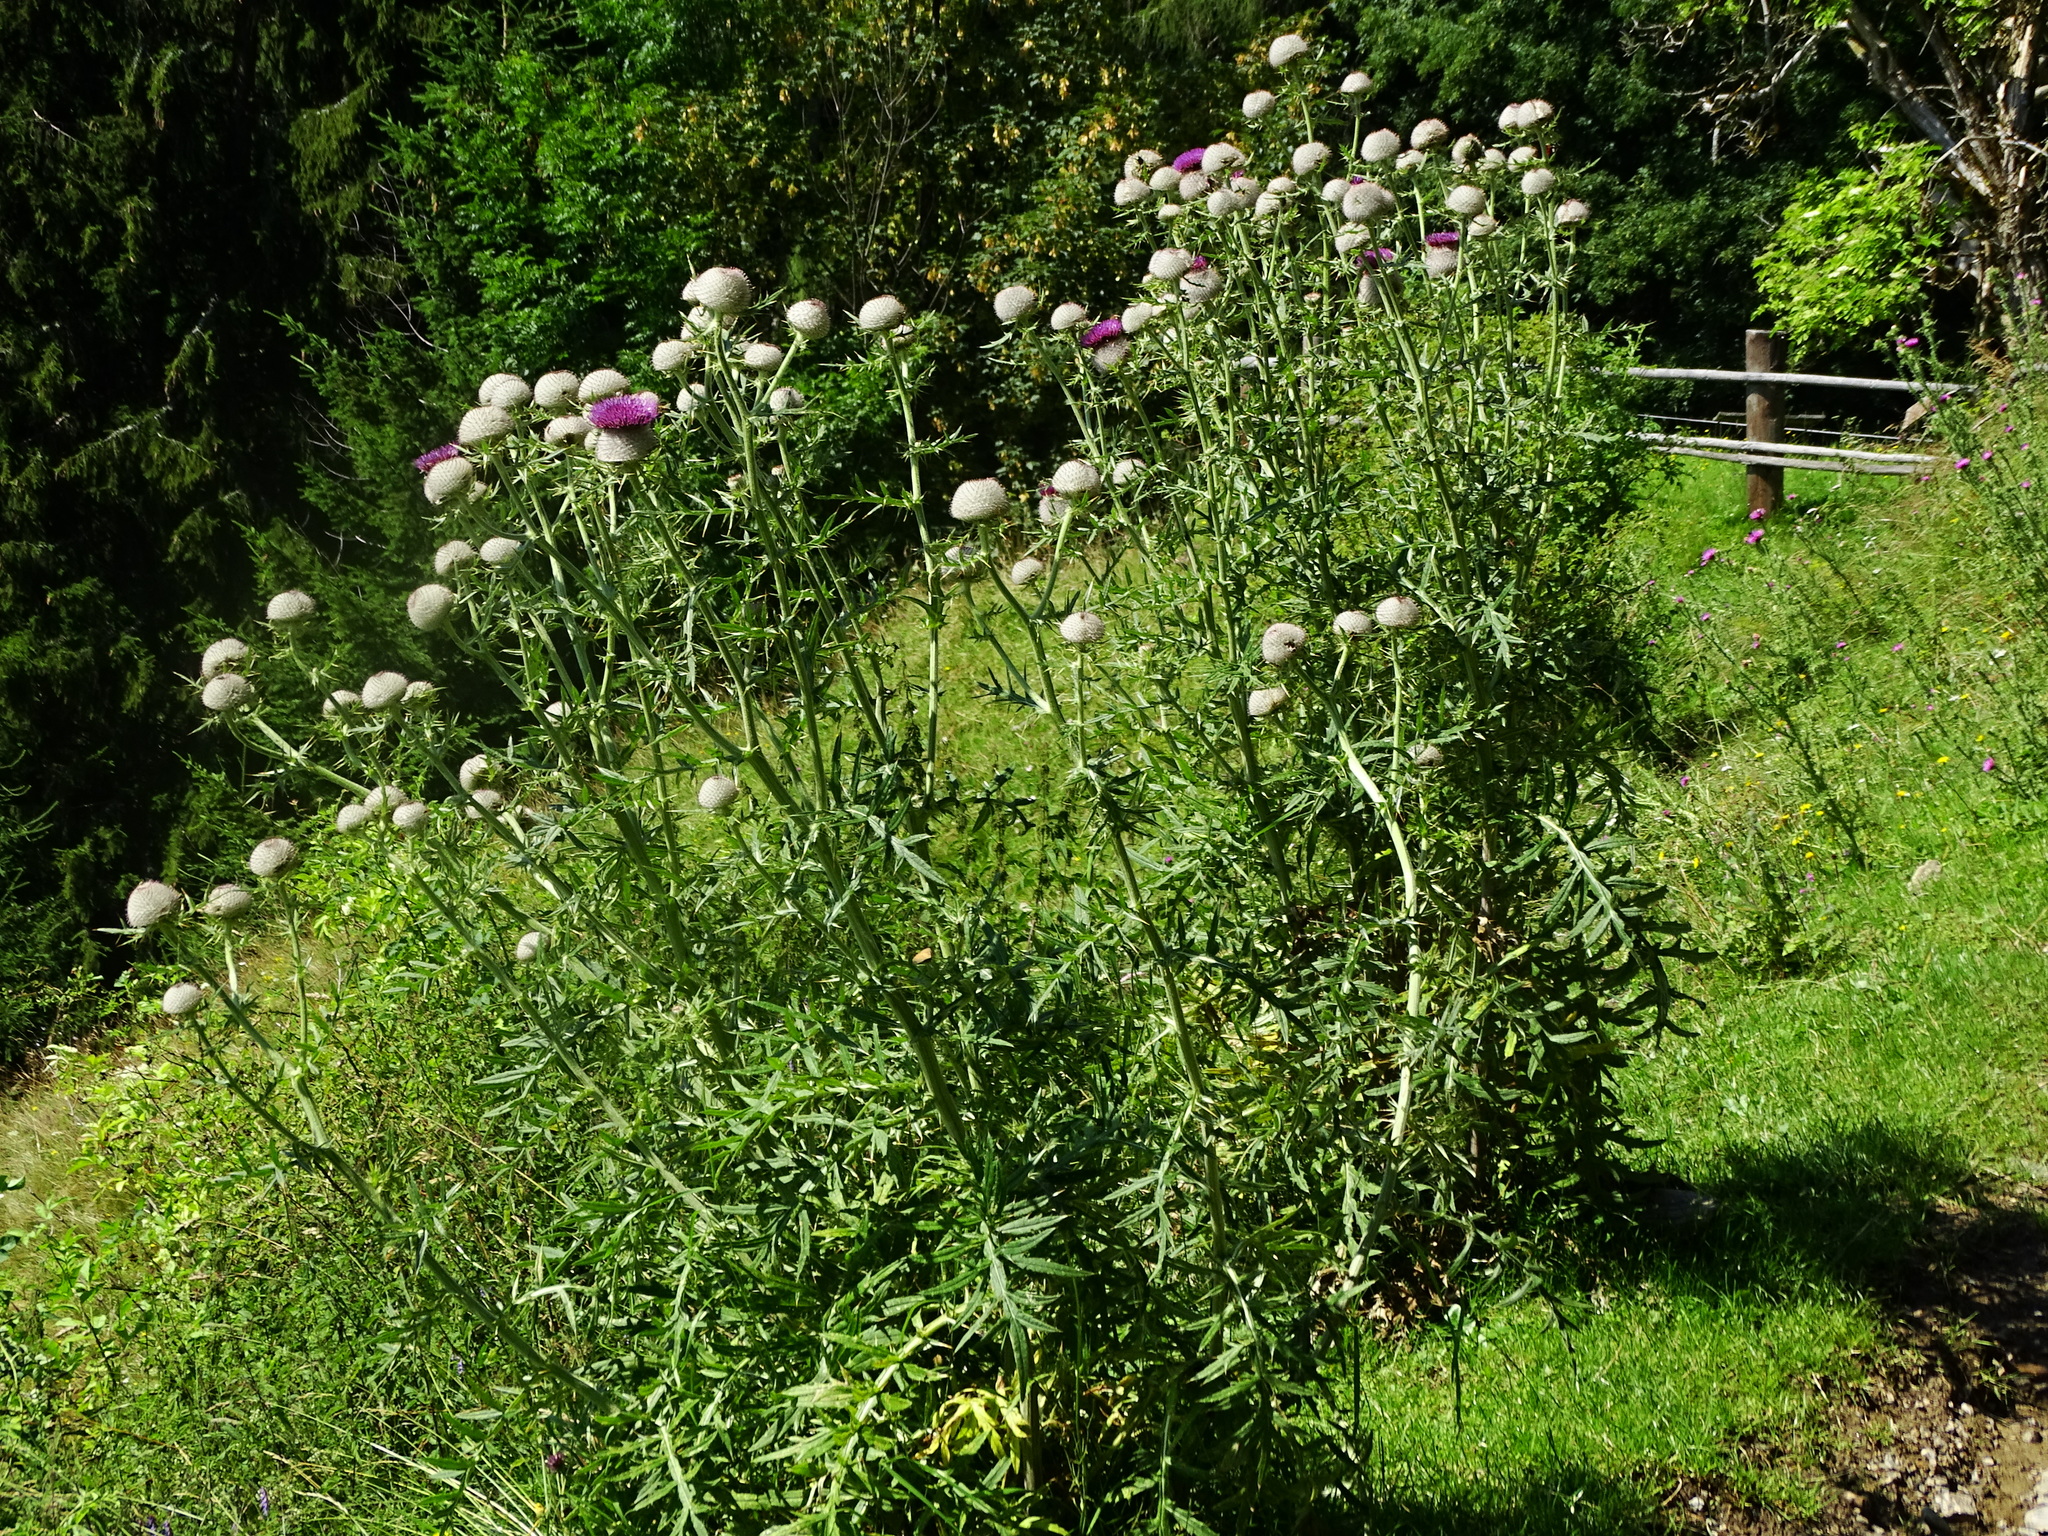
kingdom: Plantae
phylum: Tracheophyta
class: Magnoliopsida
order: Asterales
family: Asteraceae
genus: Lophiolepis
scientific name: Lophiolepis eriophora
